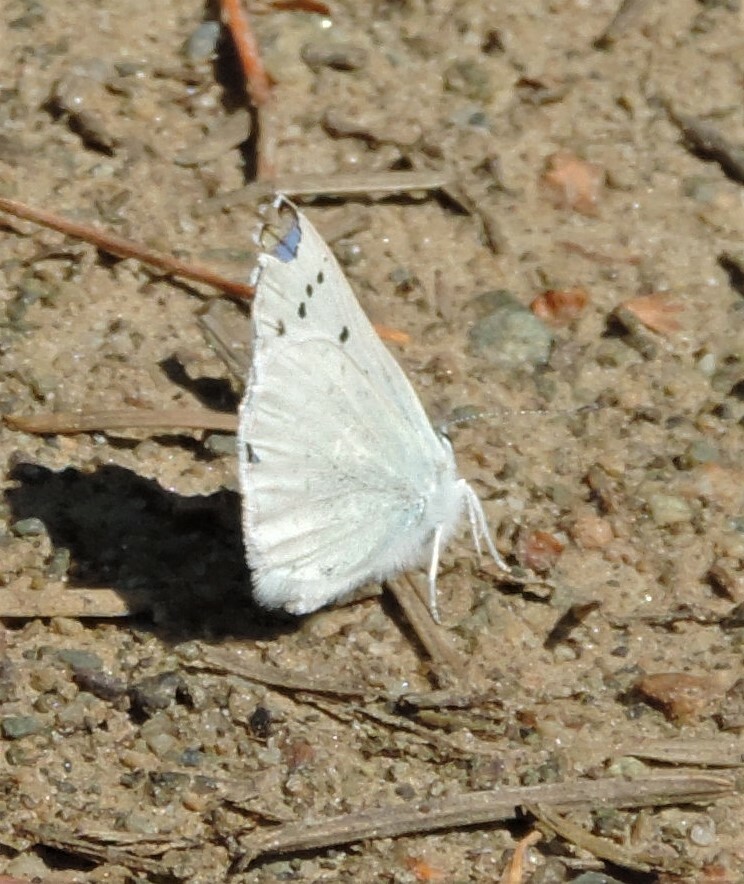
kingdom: Animalia
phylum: Arthropoda
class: Insecta
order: Lepidoptera
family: Lycaenidae
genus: Tharsalea
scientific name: Tharsalea heteronea
